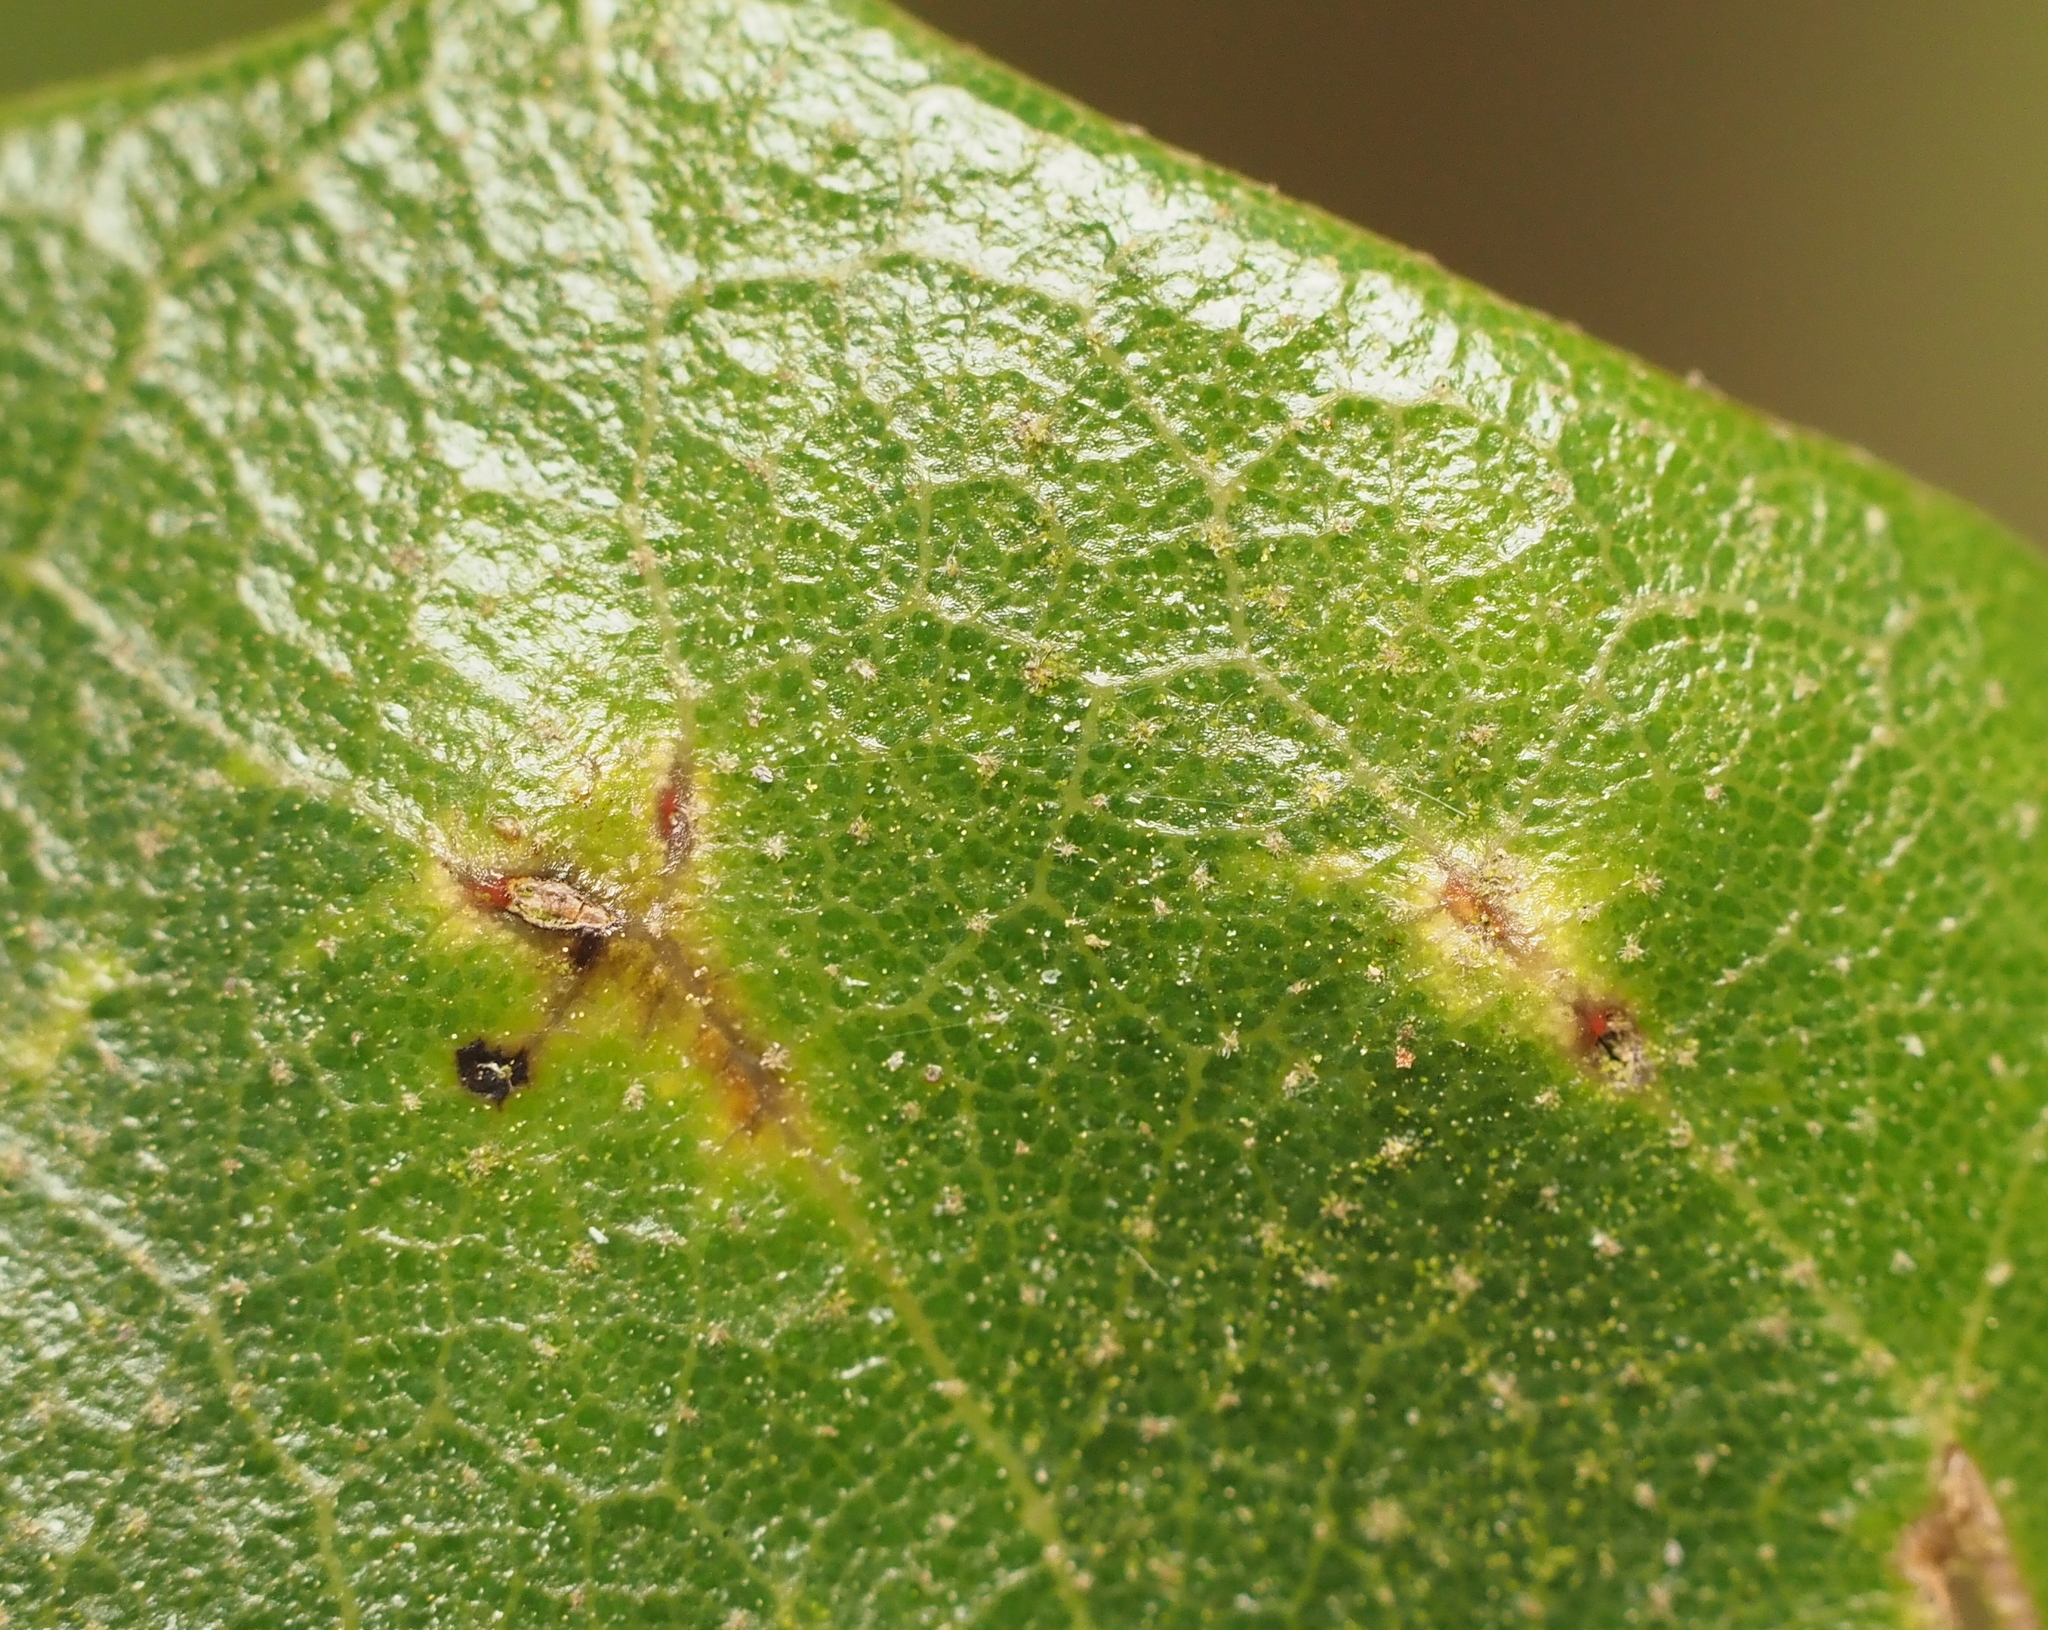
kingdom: Animalia
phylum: Arthropoda
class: Insecta
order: Hymenoptera
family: Cynipidae
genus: Belonocnema
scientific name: Belonocnema kinseyi
